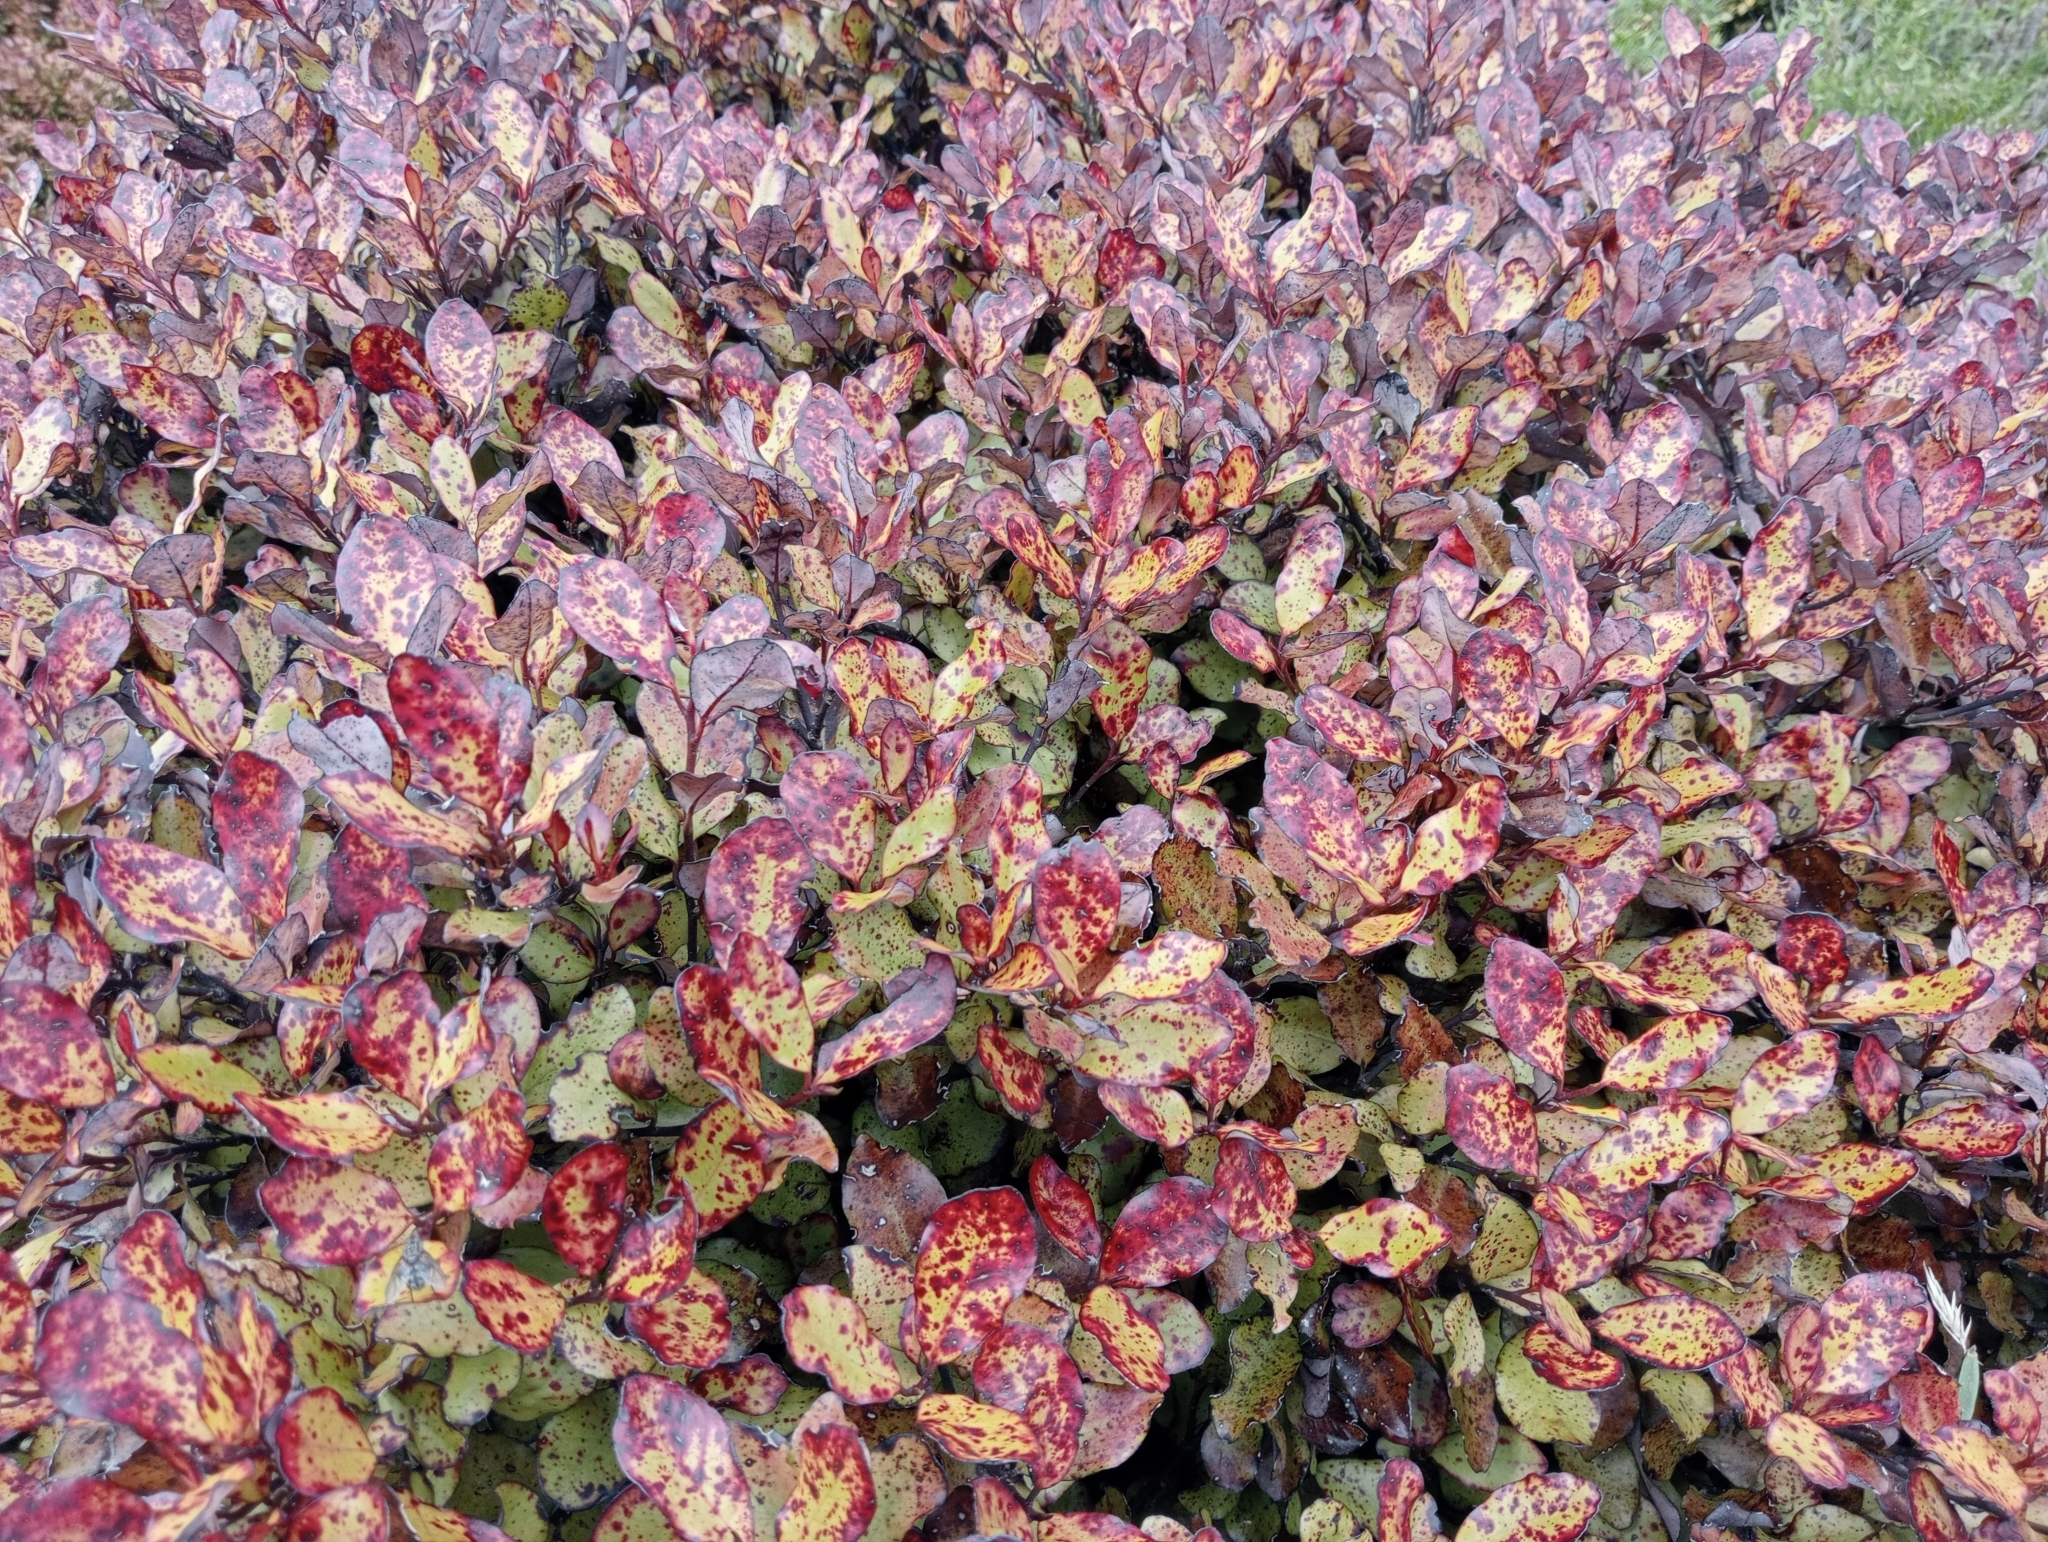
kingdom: Plantae
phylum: Tracheophyta
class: Magnoliopsida
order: Canellales
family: Winteraceae
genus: Pseudowintera
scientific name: Pseudowintera colorata
